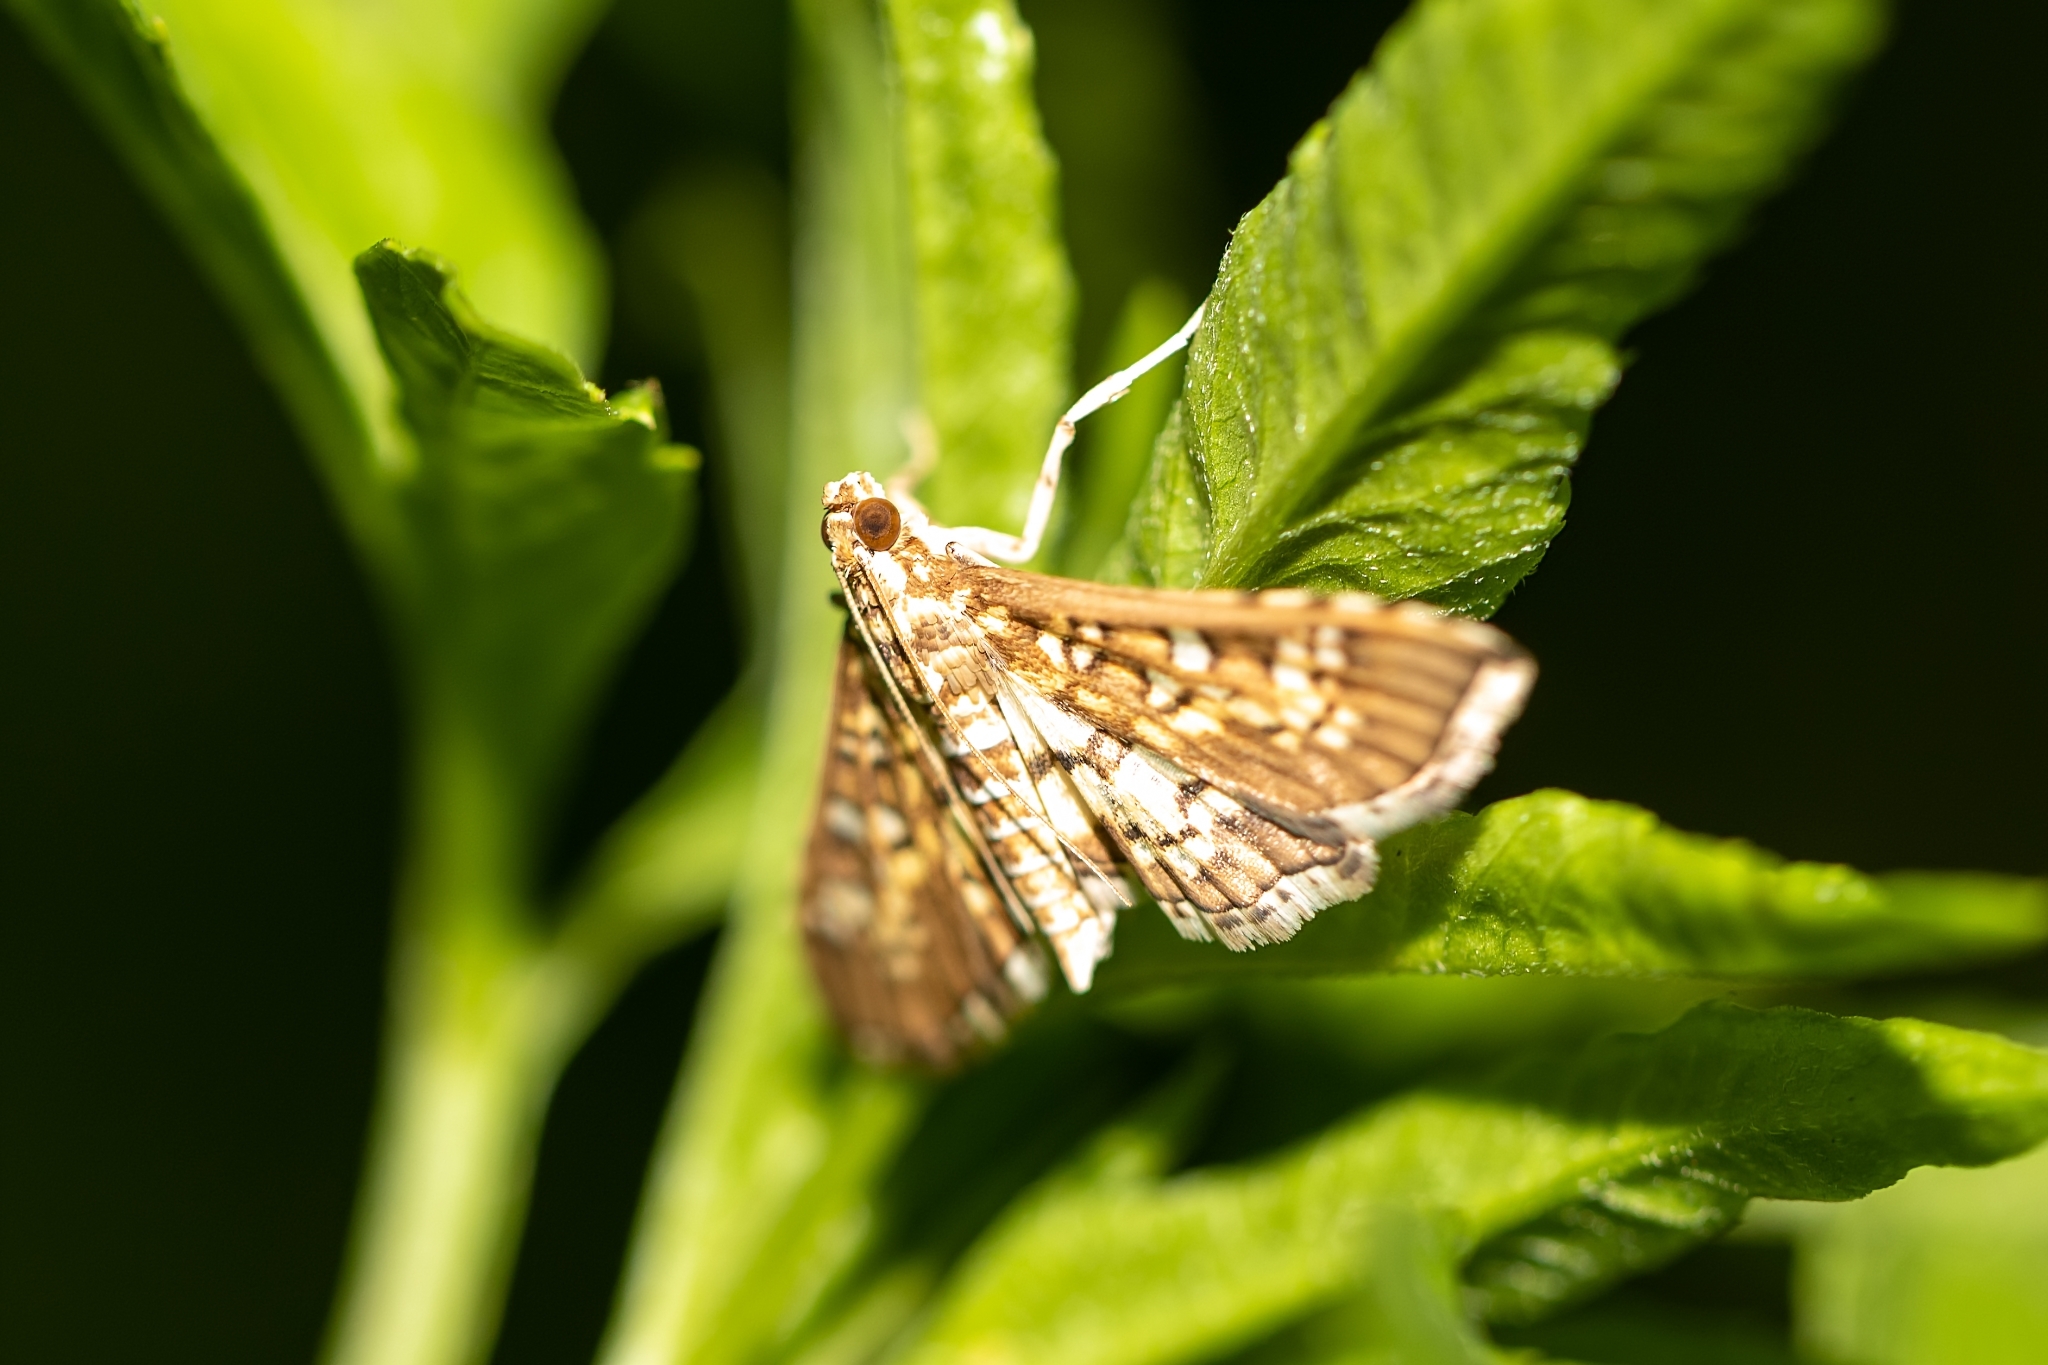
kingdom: Animalia
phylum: Arthropoda
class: Insecta
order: Lepidoptera
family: Crambidae
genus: Samea
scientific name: Samea multiplicalis
